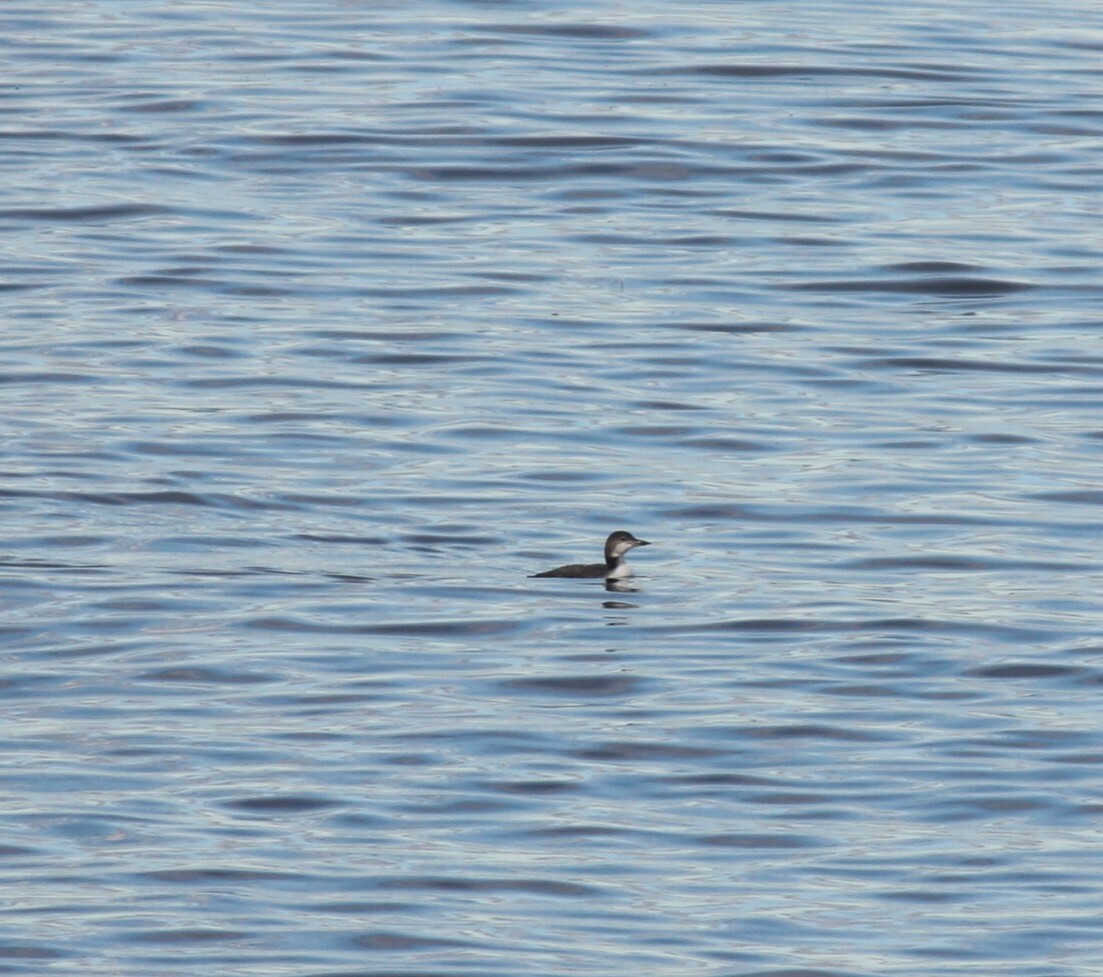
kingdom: Animalia
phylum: Chordata
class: Aves
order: Gaviiformes
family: Gaviidae
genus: Gavia
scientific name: Gavia immer
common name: Common loon
